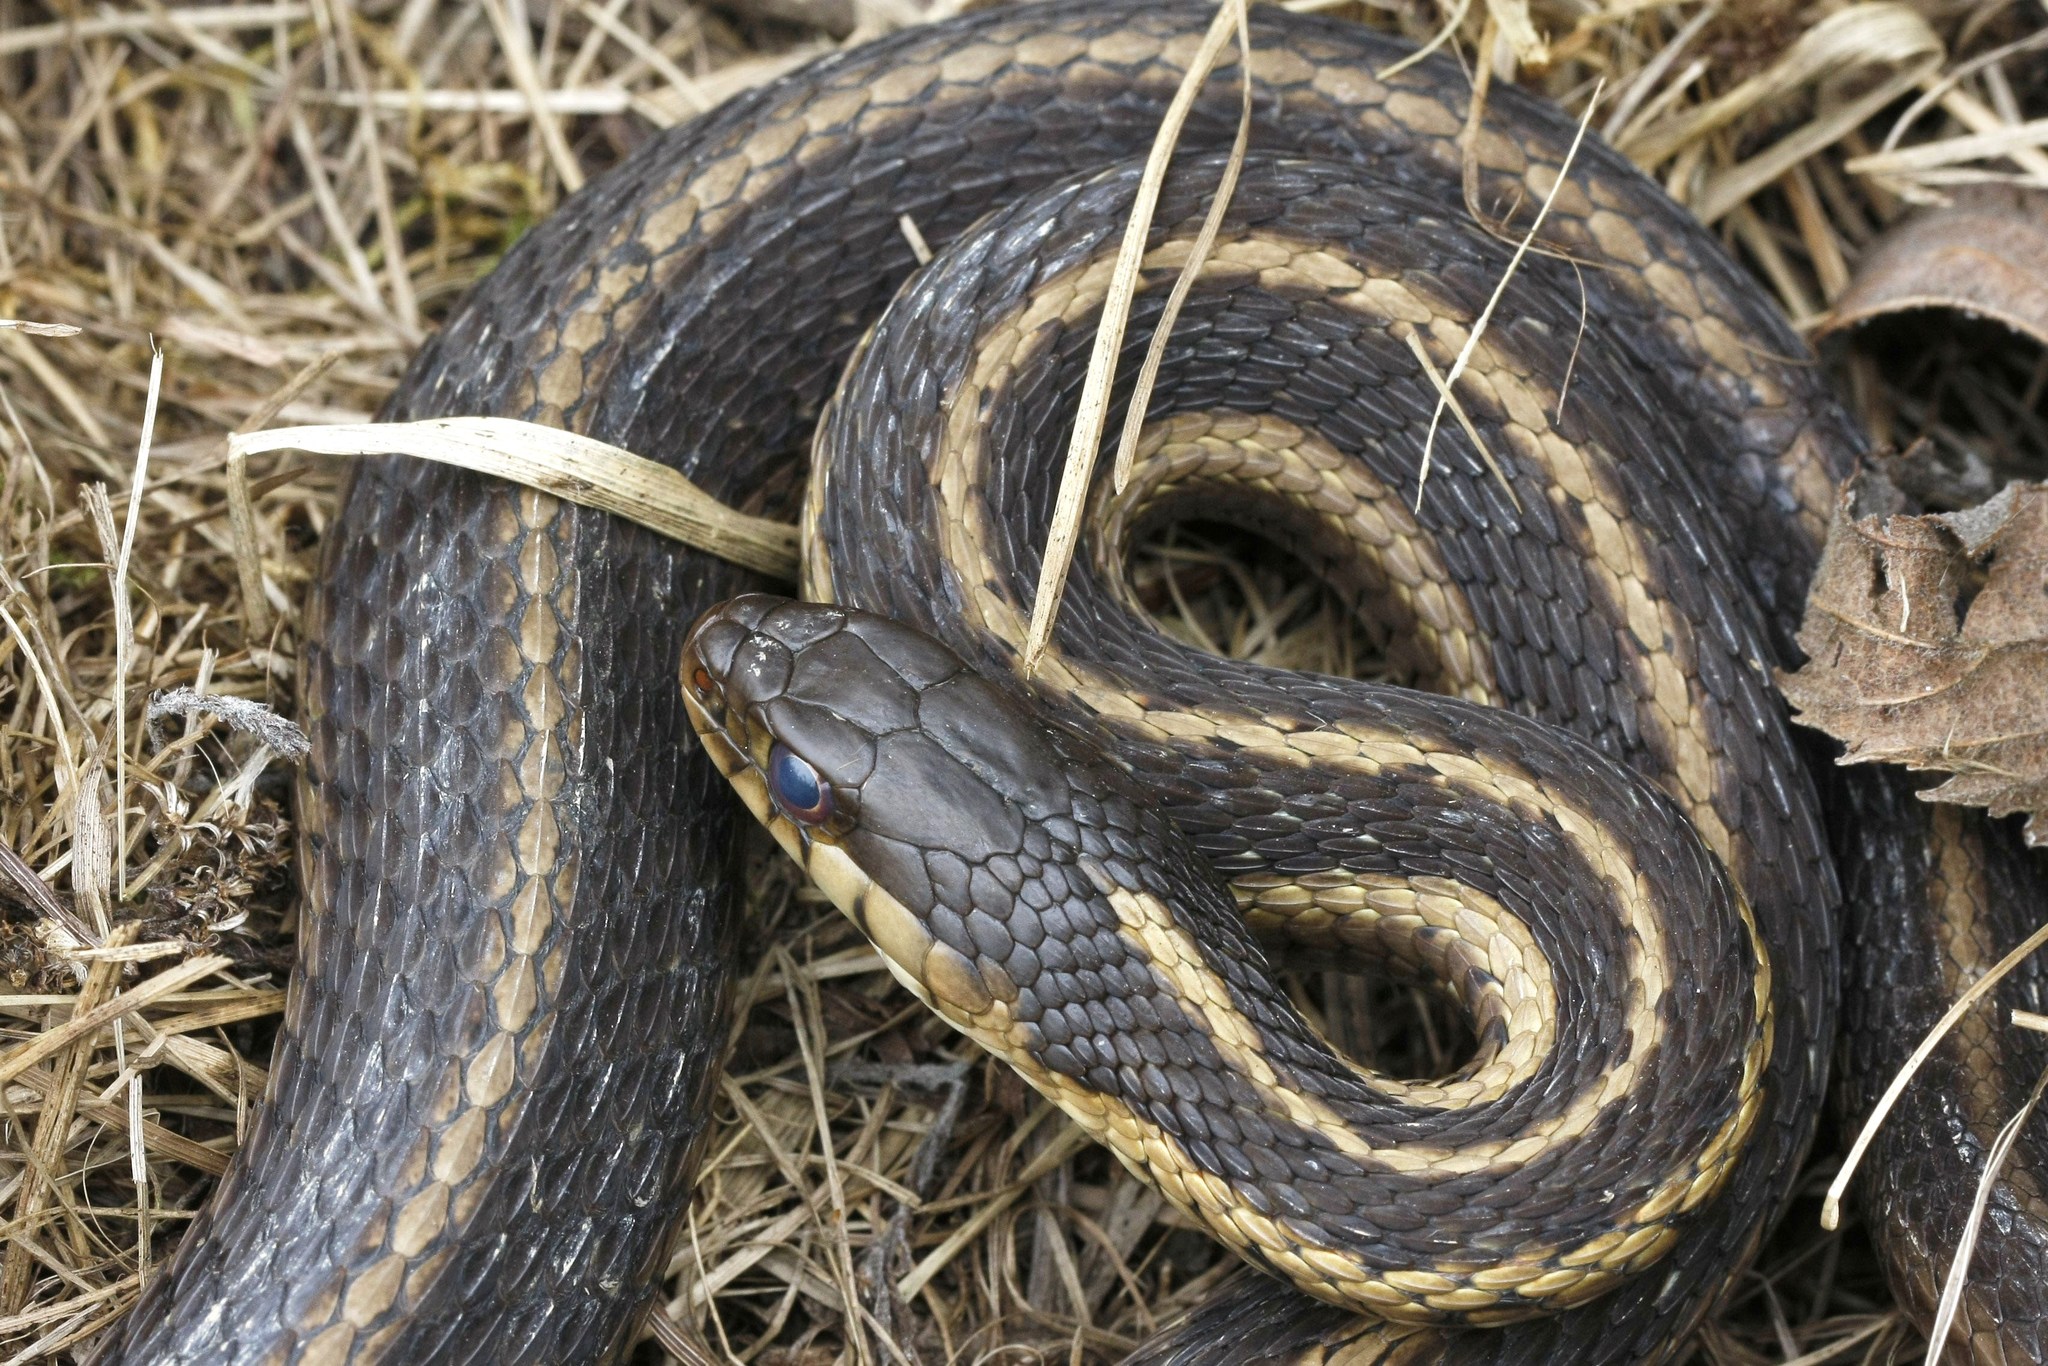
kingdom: Animalia
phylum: Chordata
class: Squamata
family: Colubridae
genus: Thamnophis
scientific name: Thamnophis sirtalis
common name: Common garter snake
